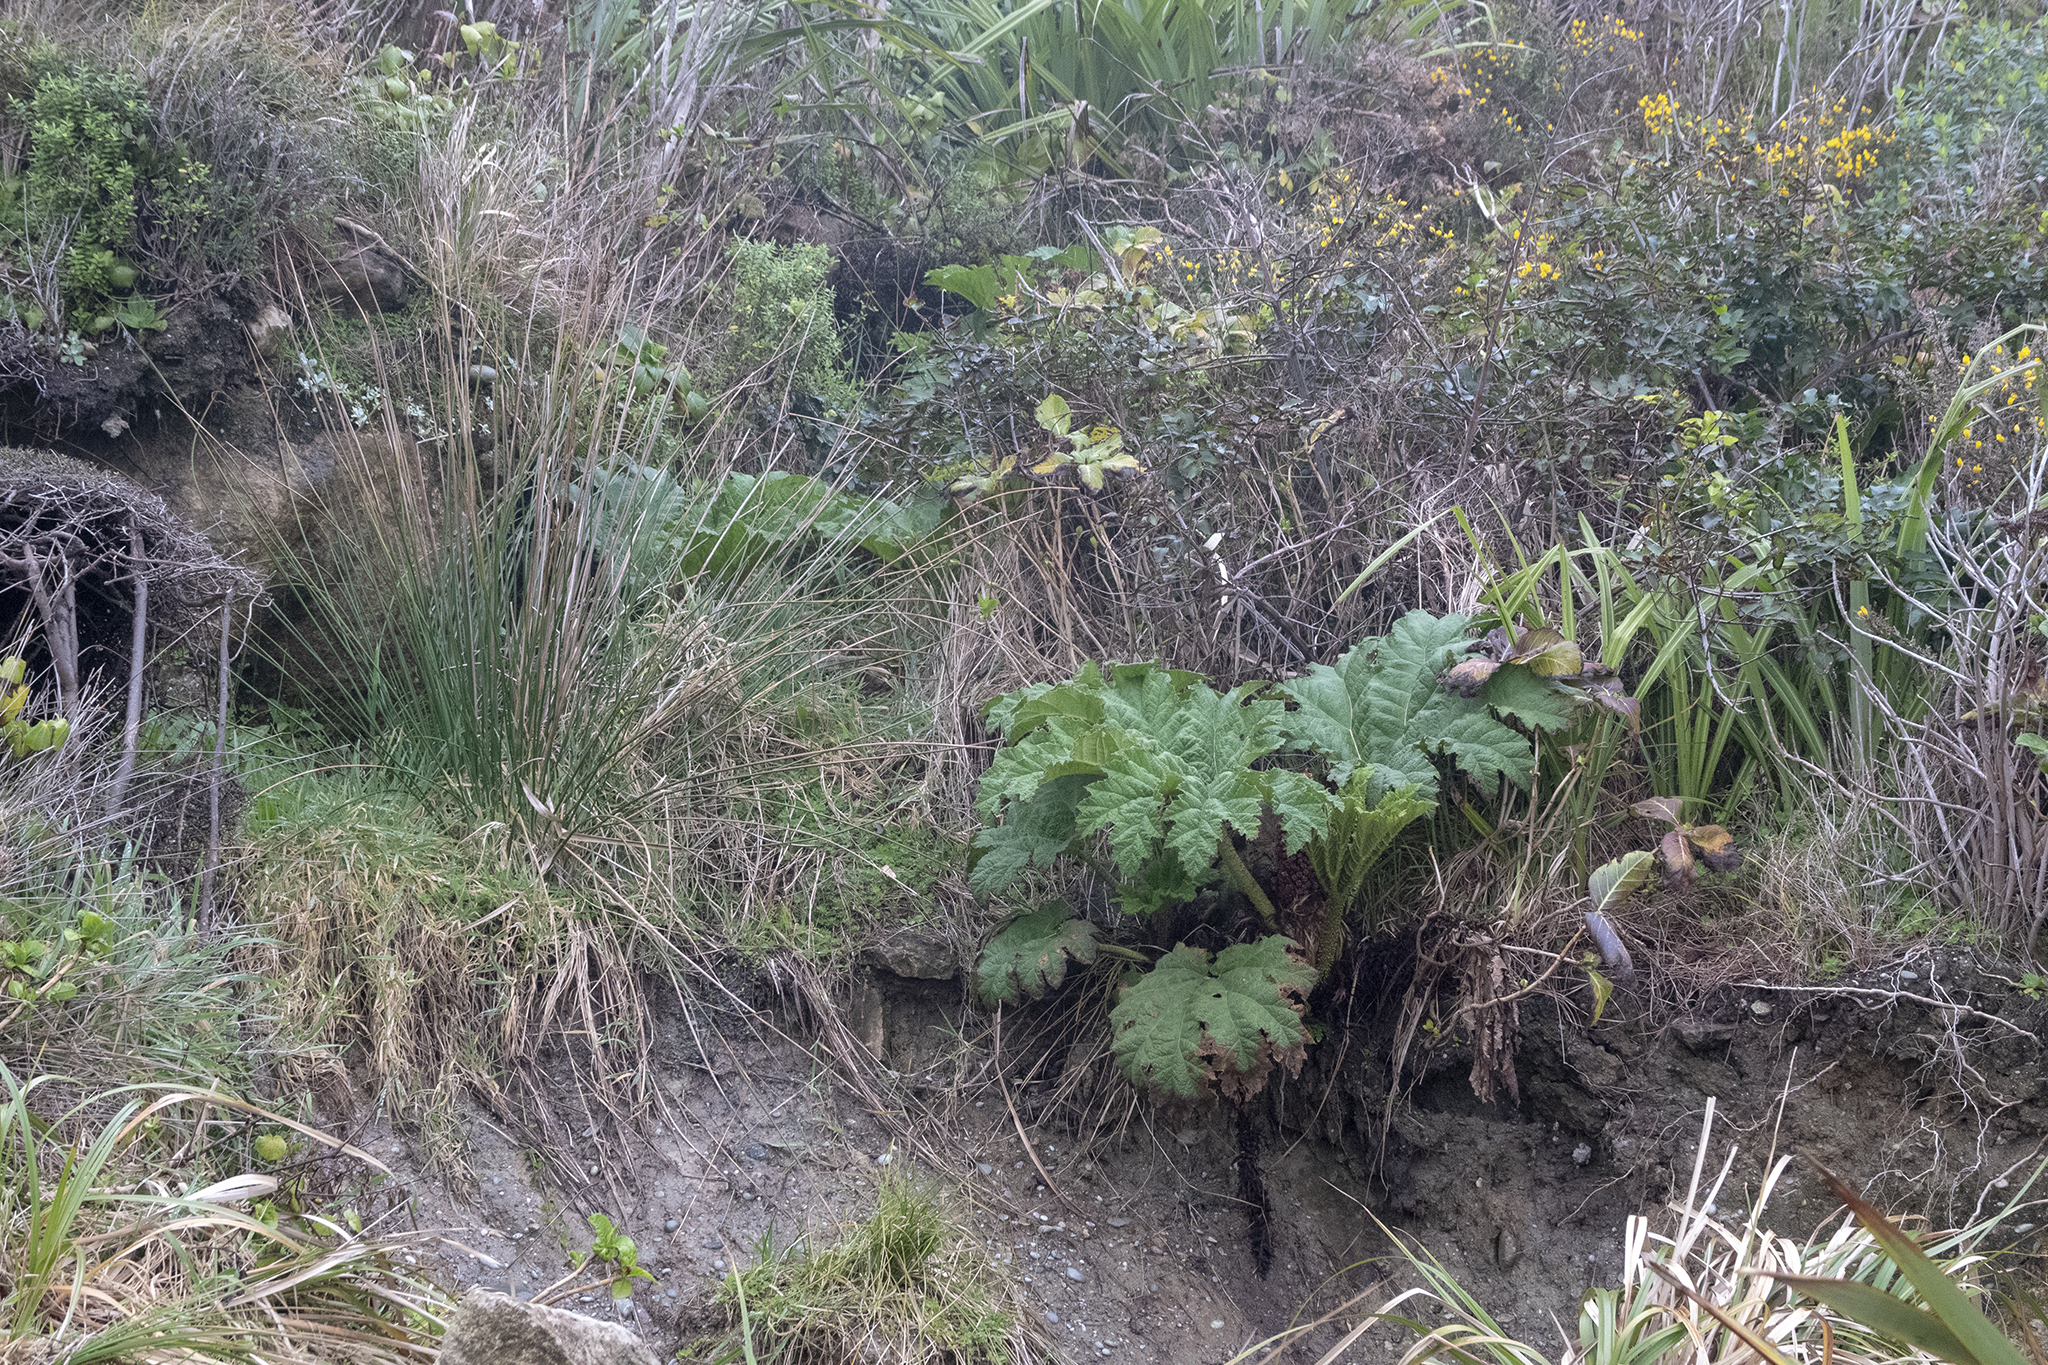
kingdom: Plantae
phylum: Tracheophyta
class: Magnoliopsida
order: Gunnerales
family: Gunneraceae
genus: Gunnera
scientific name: Gunnera tinctoria
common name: Giant-rhubarb
